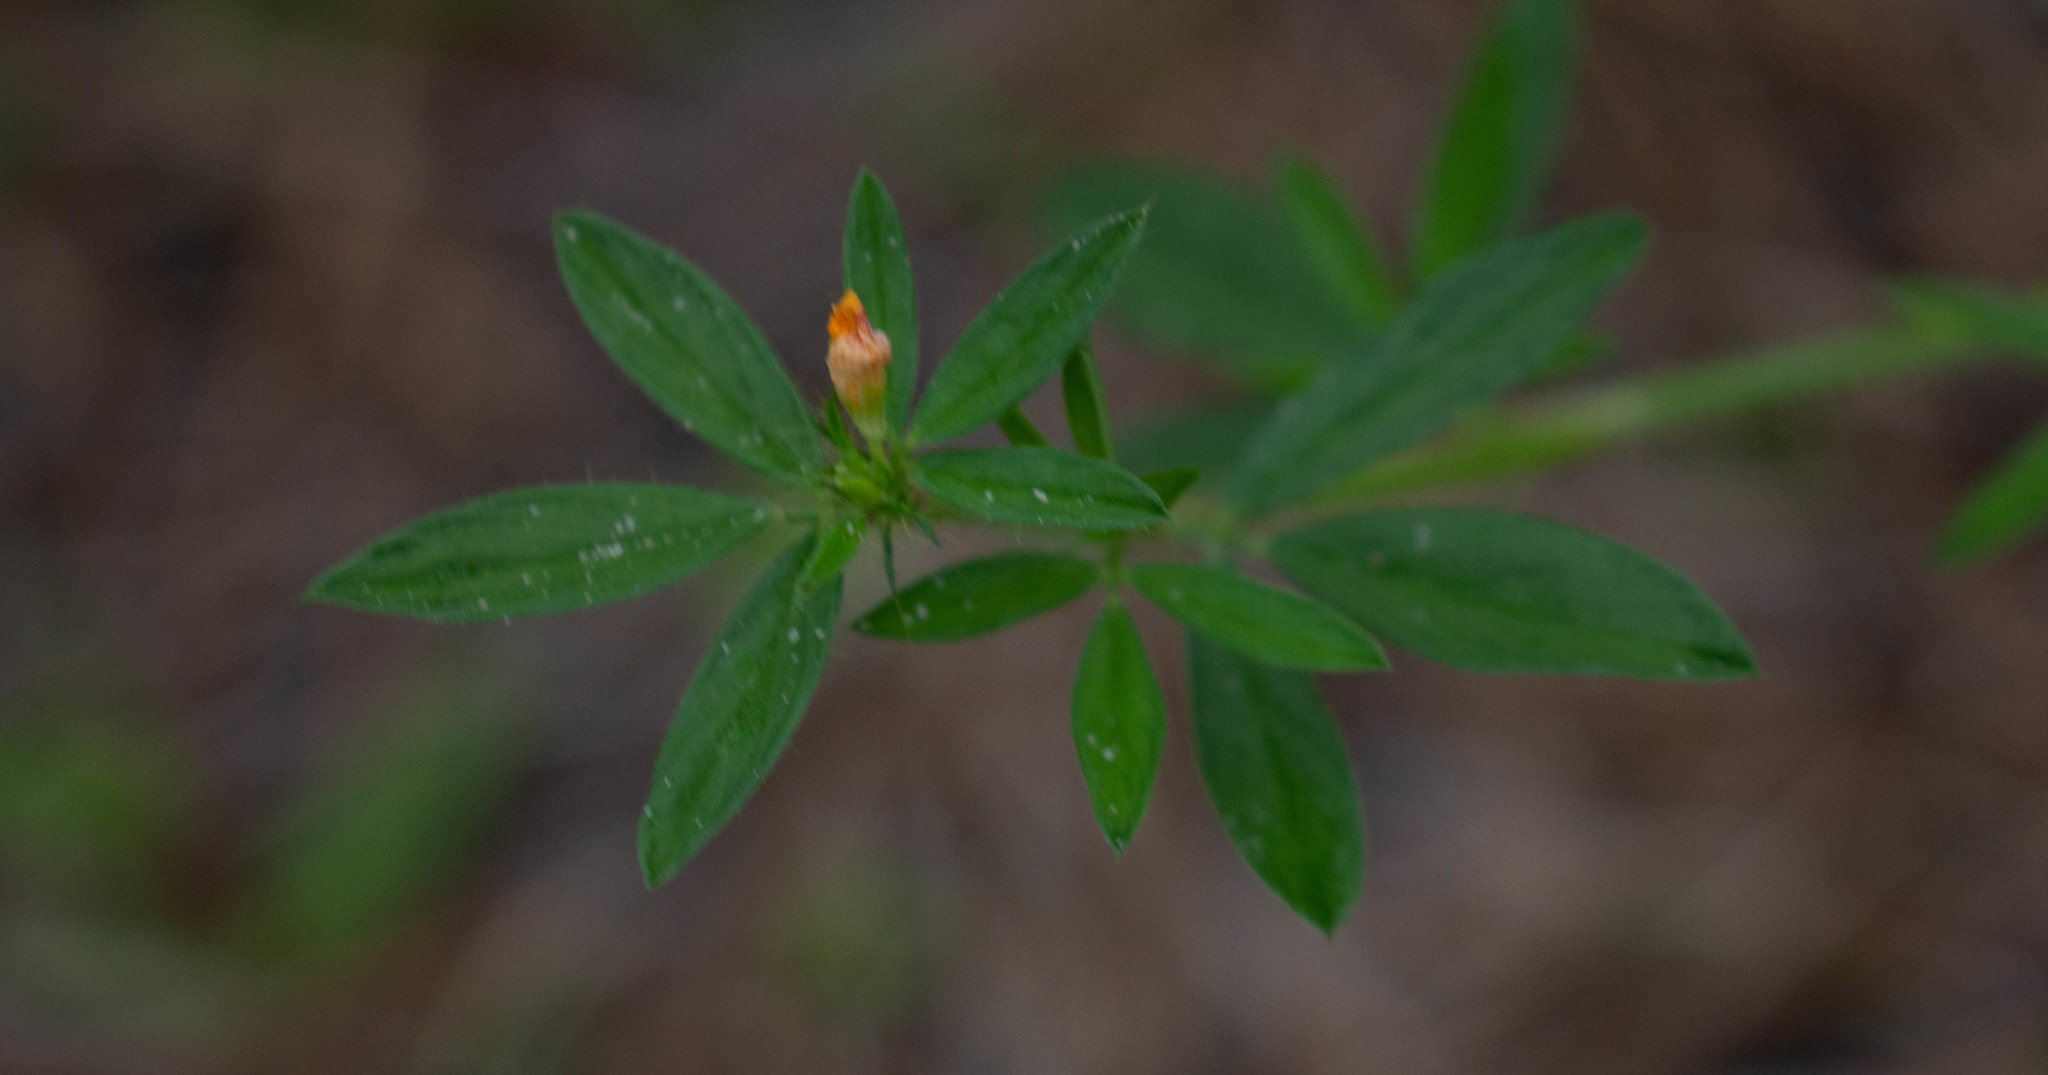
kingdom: Plantae
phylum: Tracheophyta
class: Magnoliopsida
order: Fabales
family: Fabaceae
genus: Stylosanthes
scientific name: Stylosanthes biflora
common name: Two-flower pencil-flower
